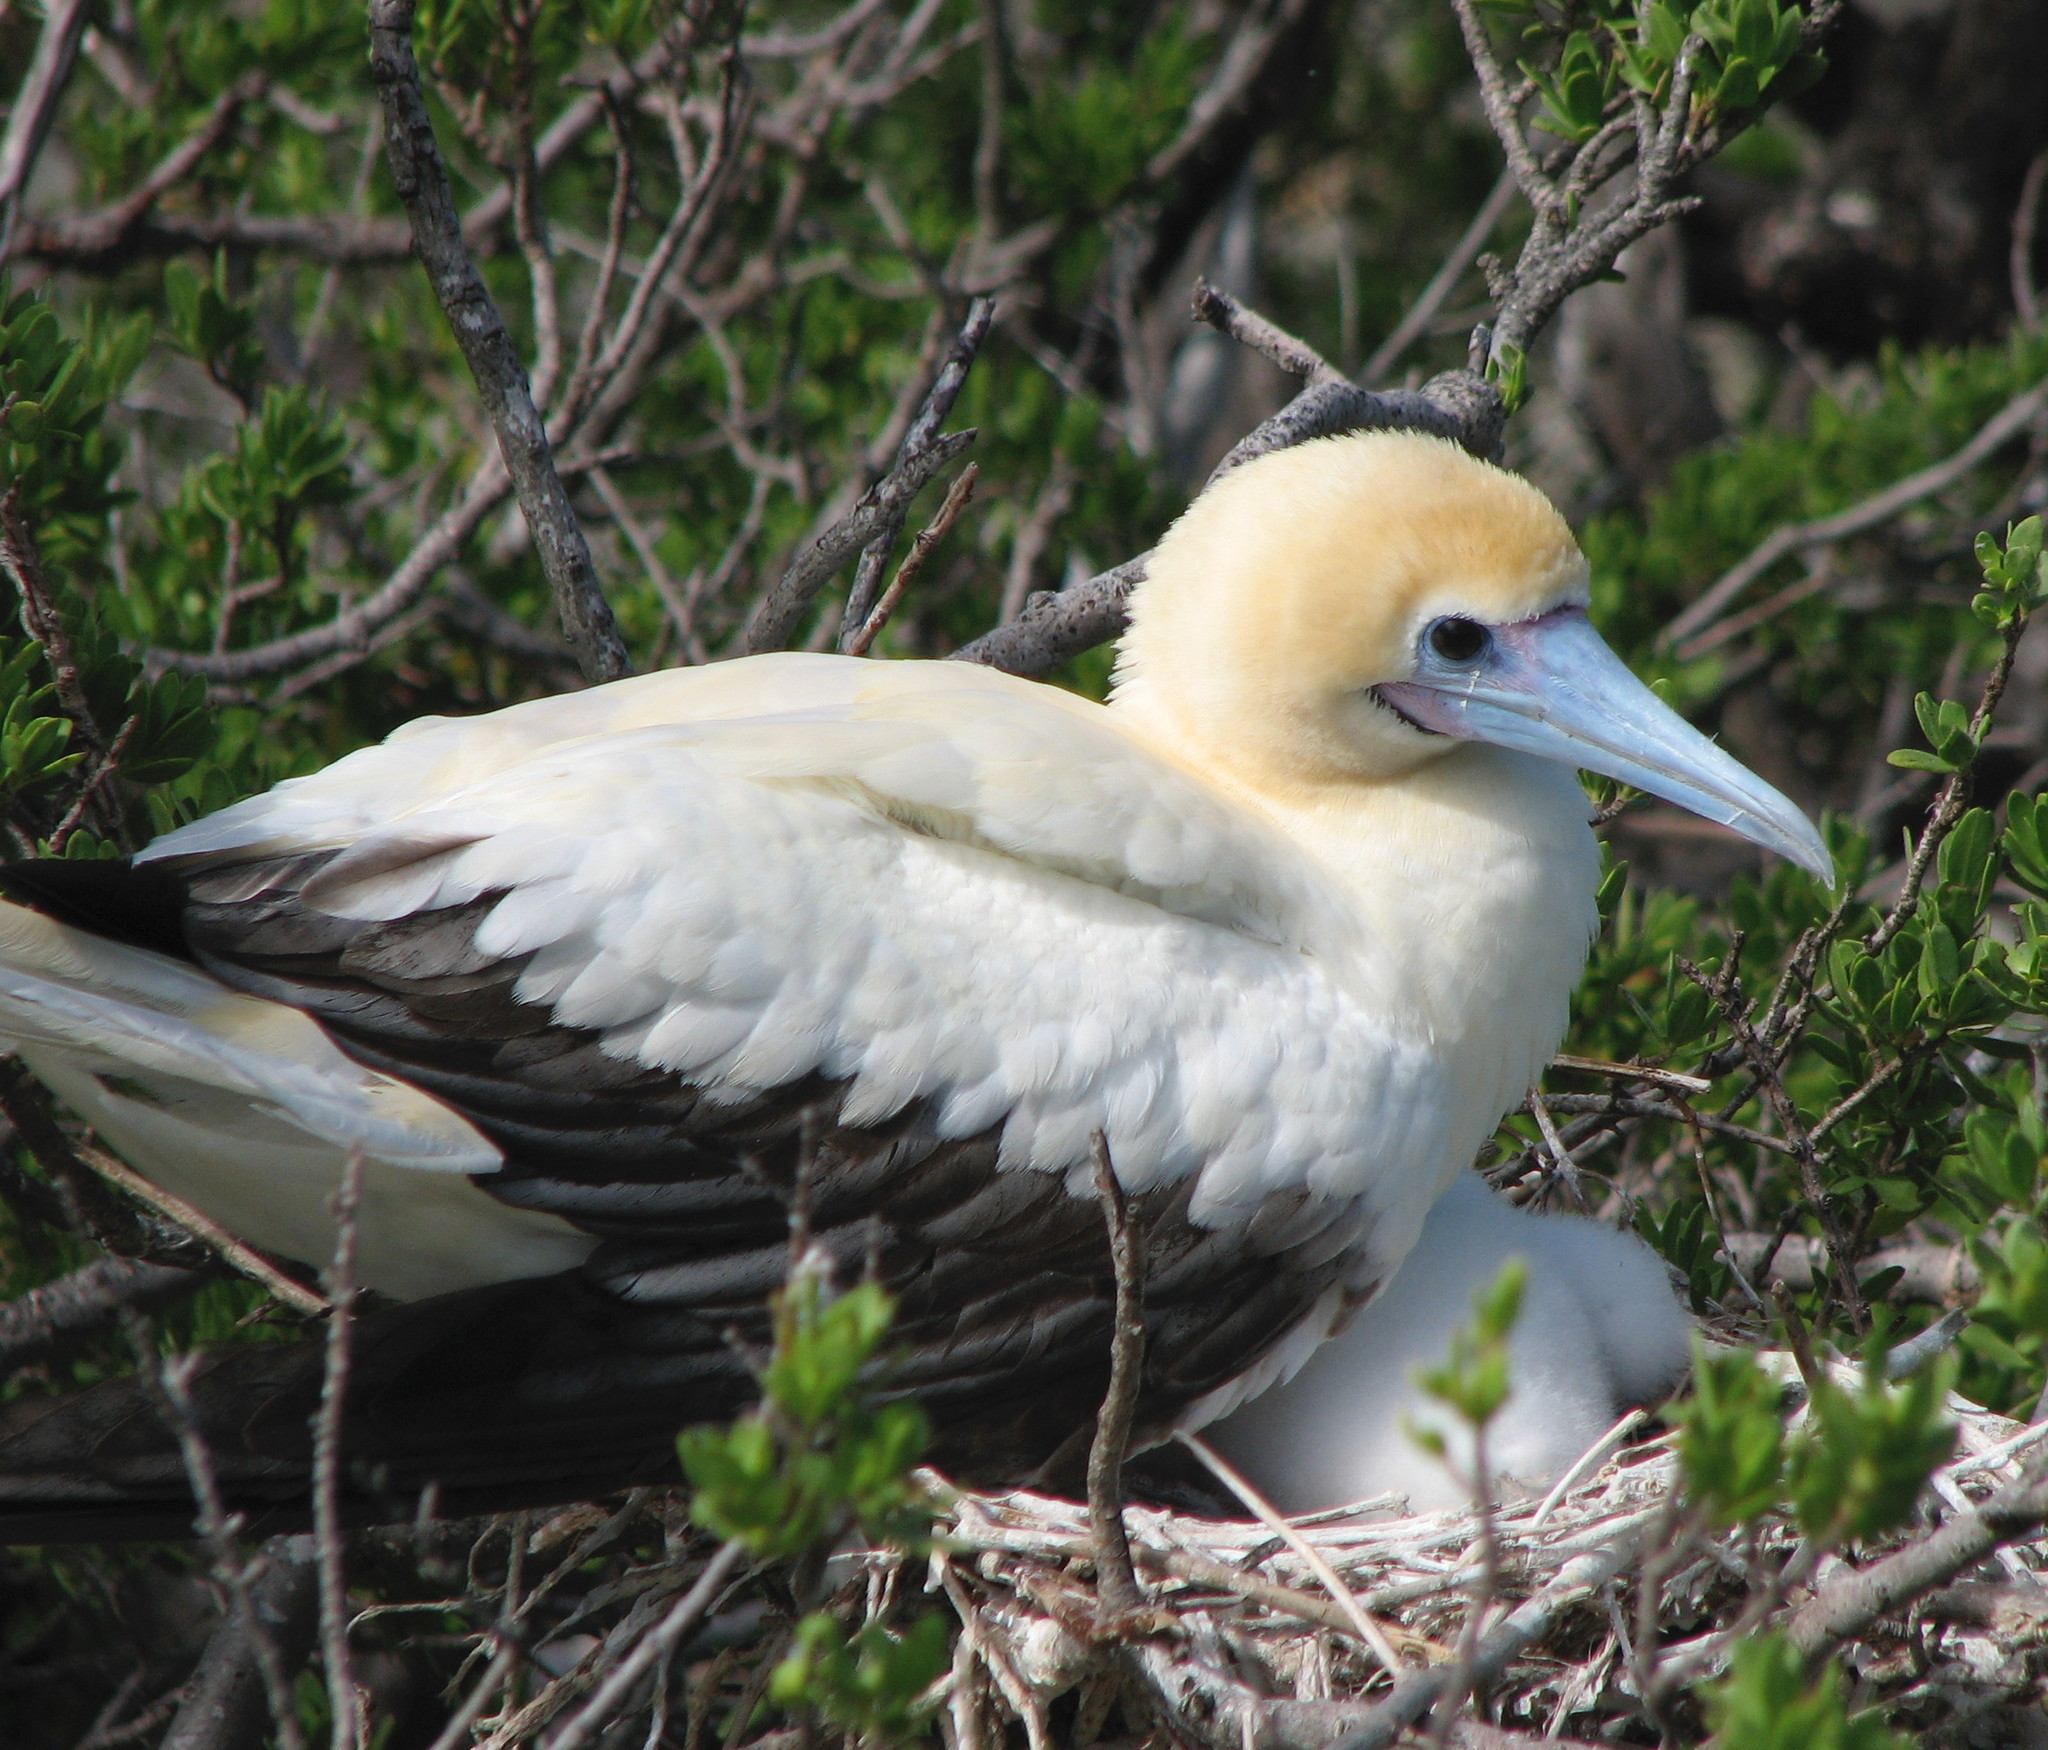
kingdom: Animalia
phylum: Chordata
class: Aves
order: Suliformes
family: Sulidae
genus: Sula
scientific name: Sula sula
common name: Red-footed booby
